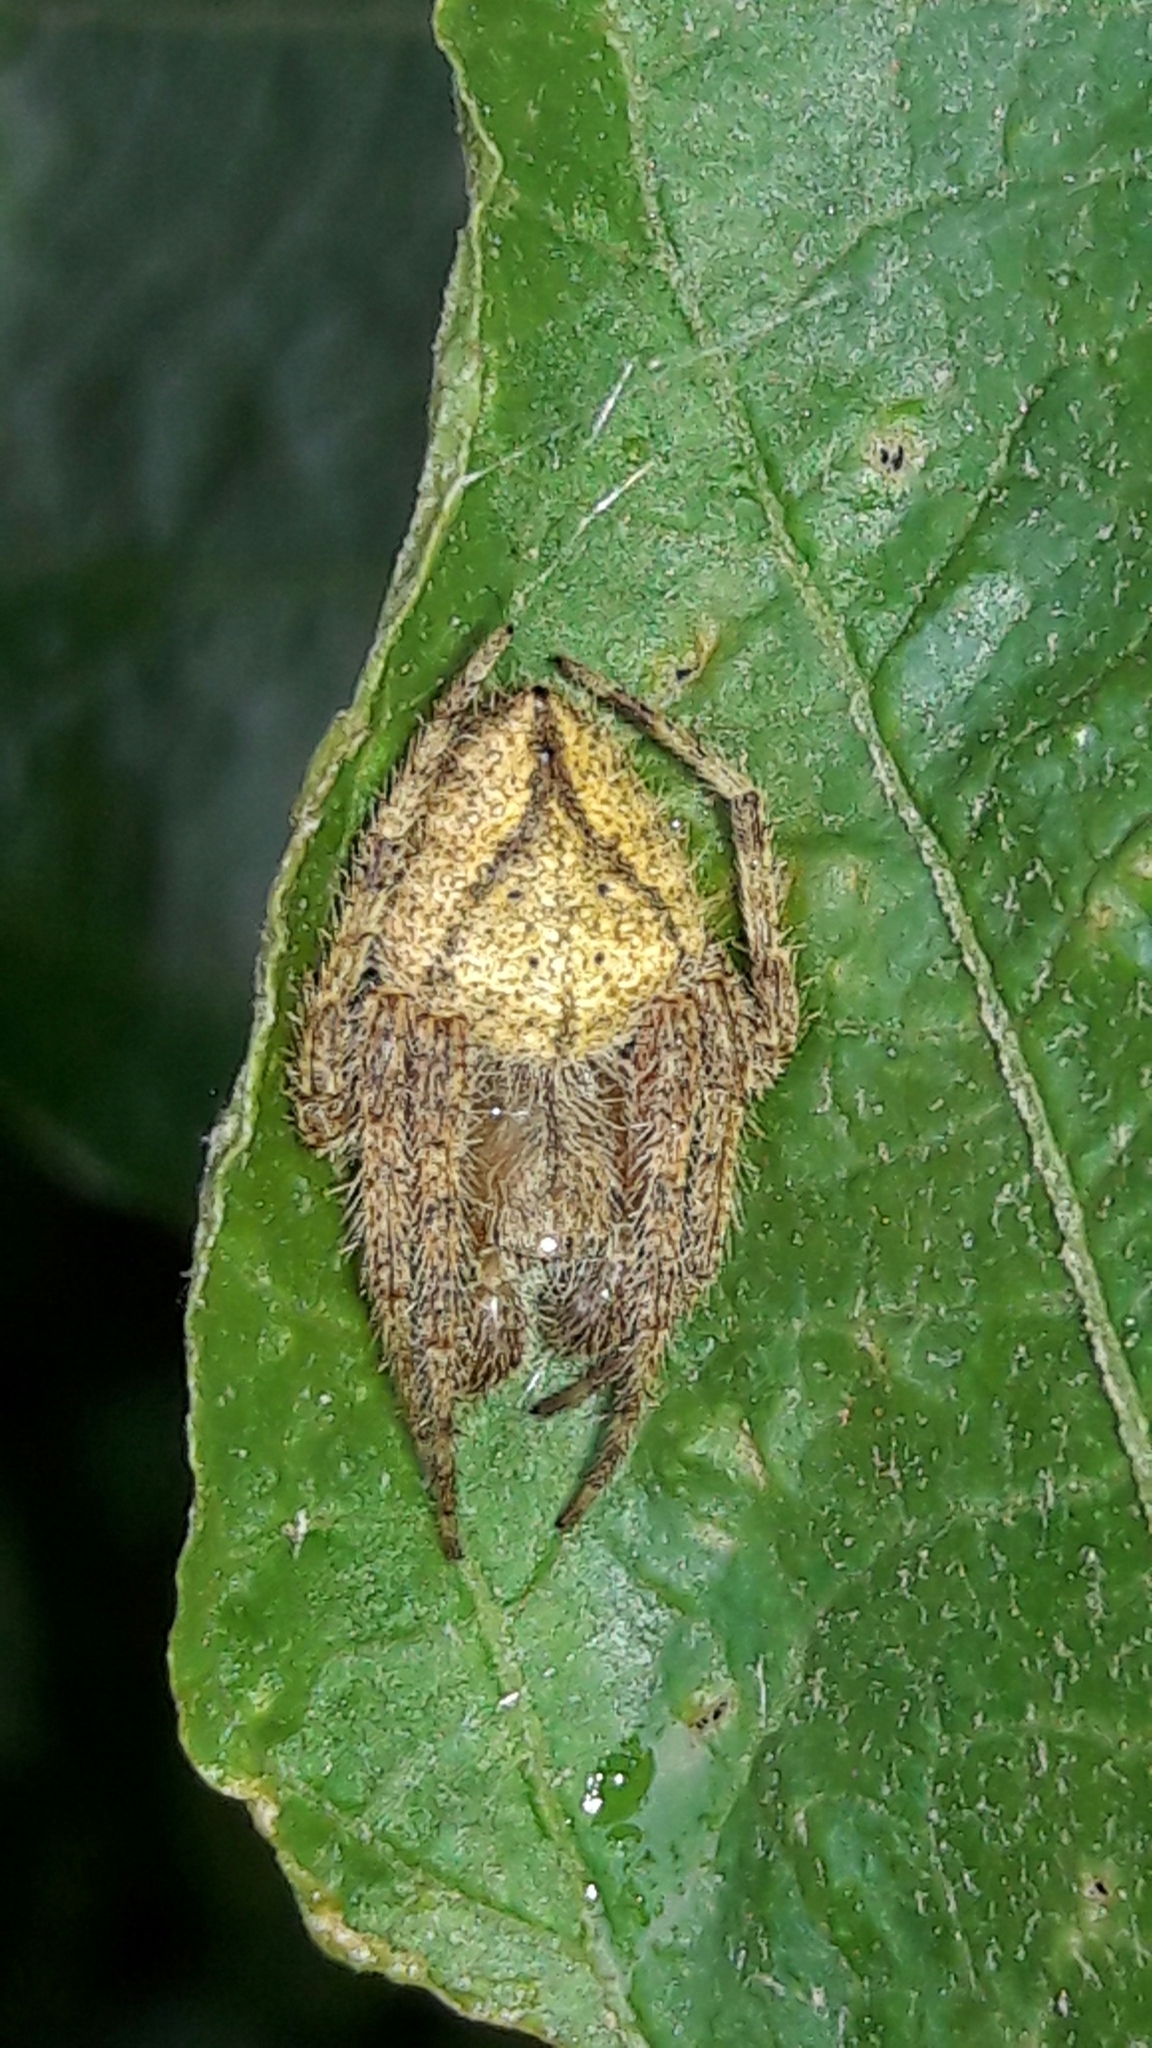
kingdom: Animalia
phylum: Arthropoda
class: Arachnida
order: Araneae
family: Araneidae
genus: Eriophora
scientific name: Eriophora edax
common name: Orb weavers
